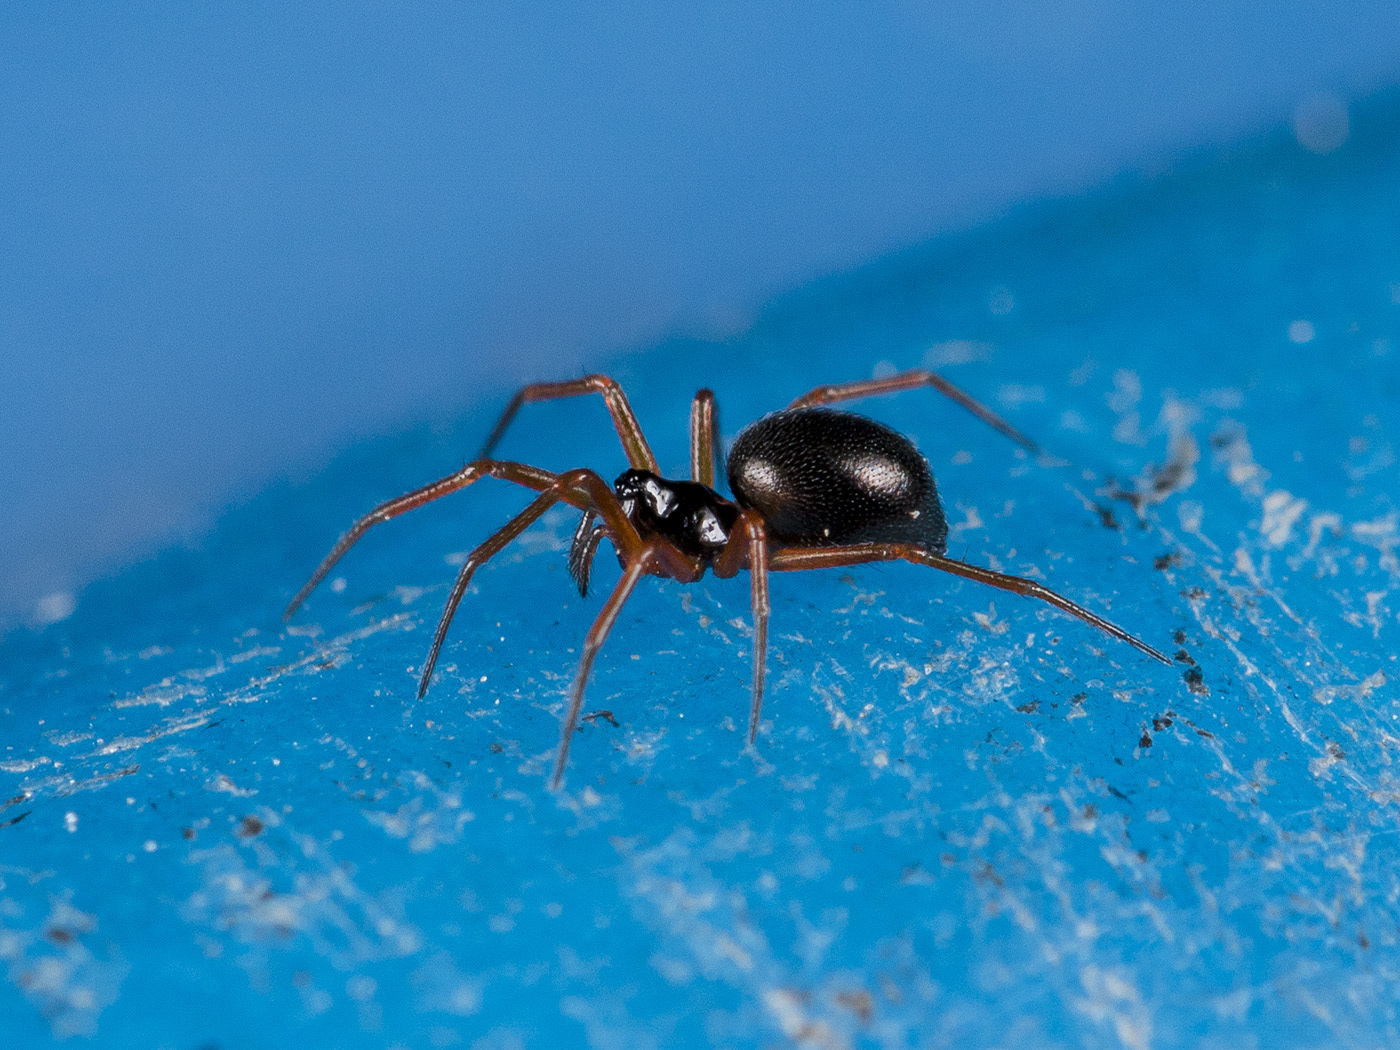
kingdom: Animalia
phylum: Arthropoda
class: Arachnida
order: Araneae
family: Linyphiidae
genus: Entelecara
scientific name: Entelecara acuminata
